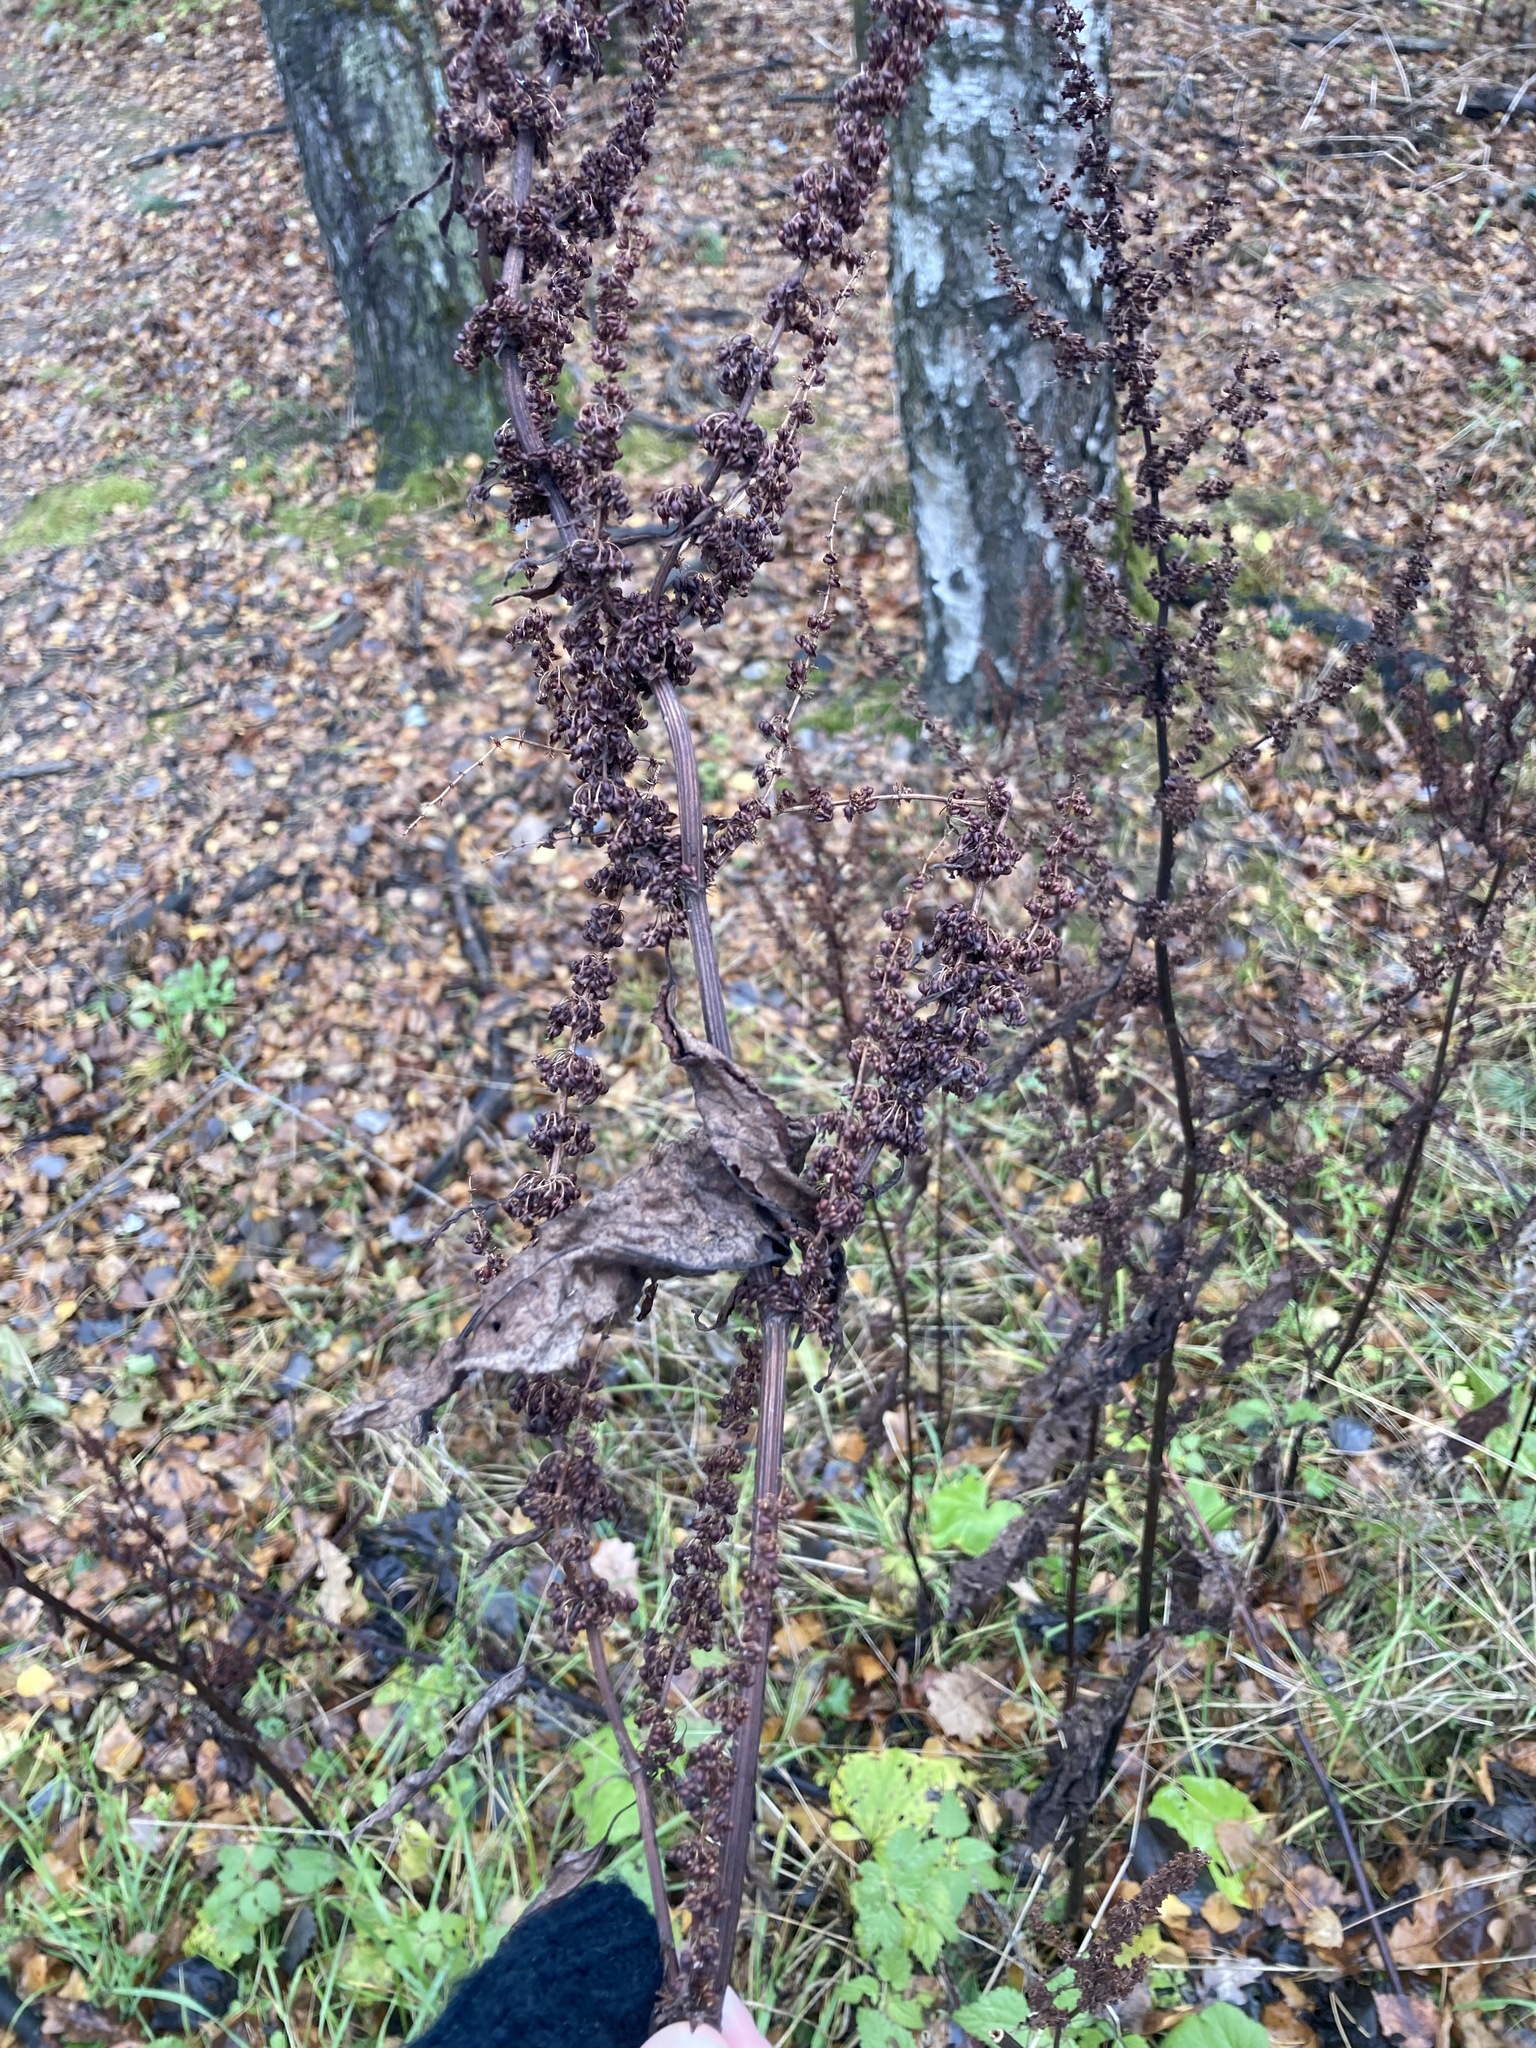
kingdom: Plantae
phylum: Tracheophyta
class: Magnoliopsida
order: Caryophyllales
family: Polygonaceae
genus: Rumex
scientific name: Rumex obtusifolius
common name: Bitter dock
